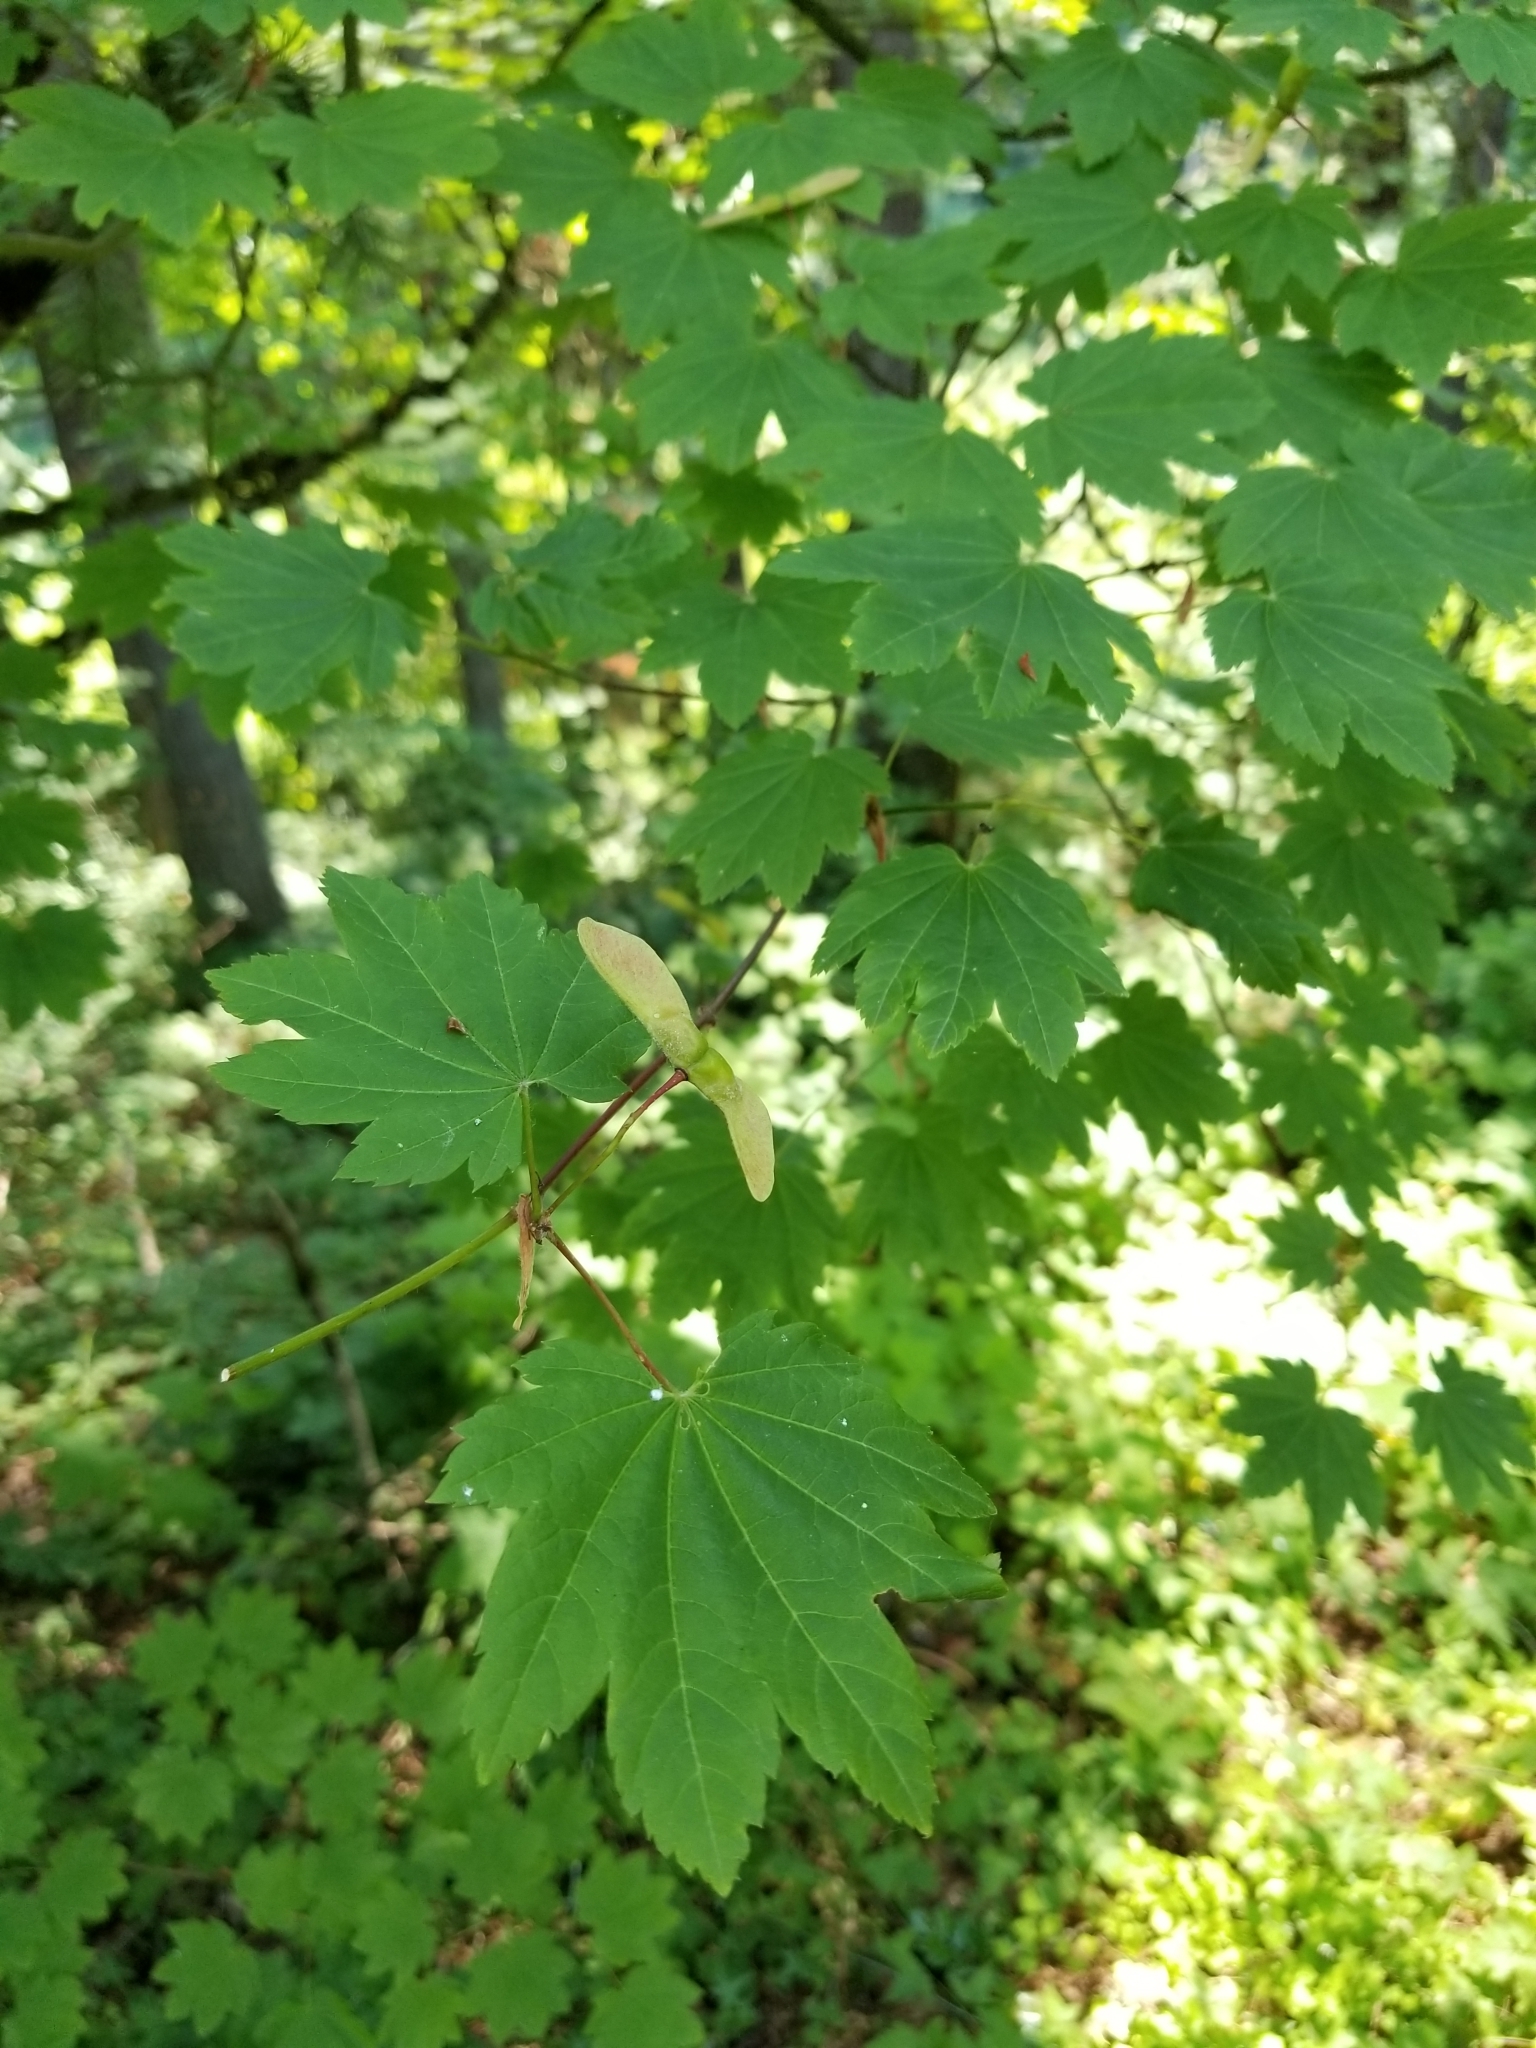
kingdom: Plantae
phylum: Tracheophyta
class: Magnoliopsida
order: Sapindales
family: Sapindaceae
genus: Acer
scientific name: Acer circinatum
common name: Vine maple
